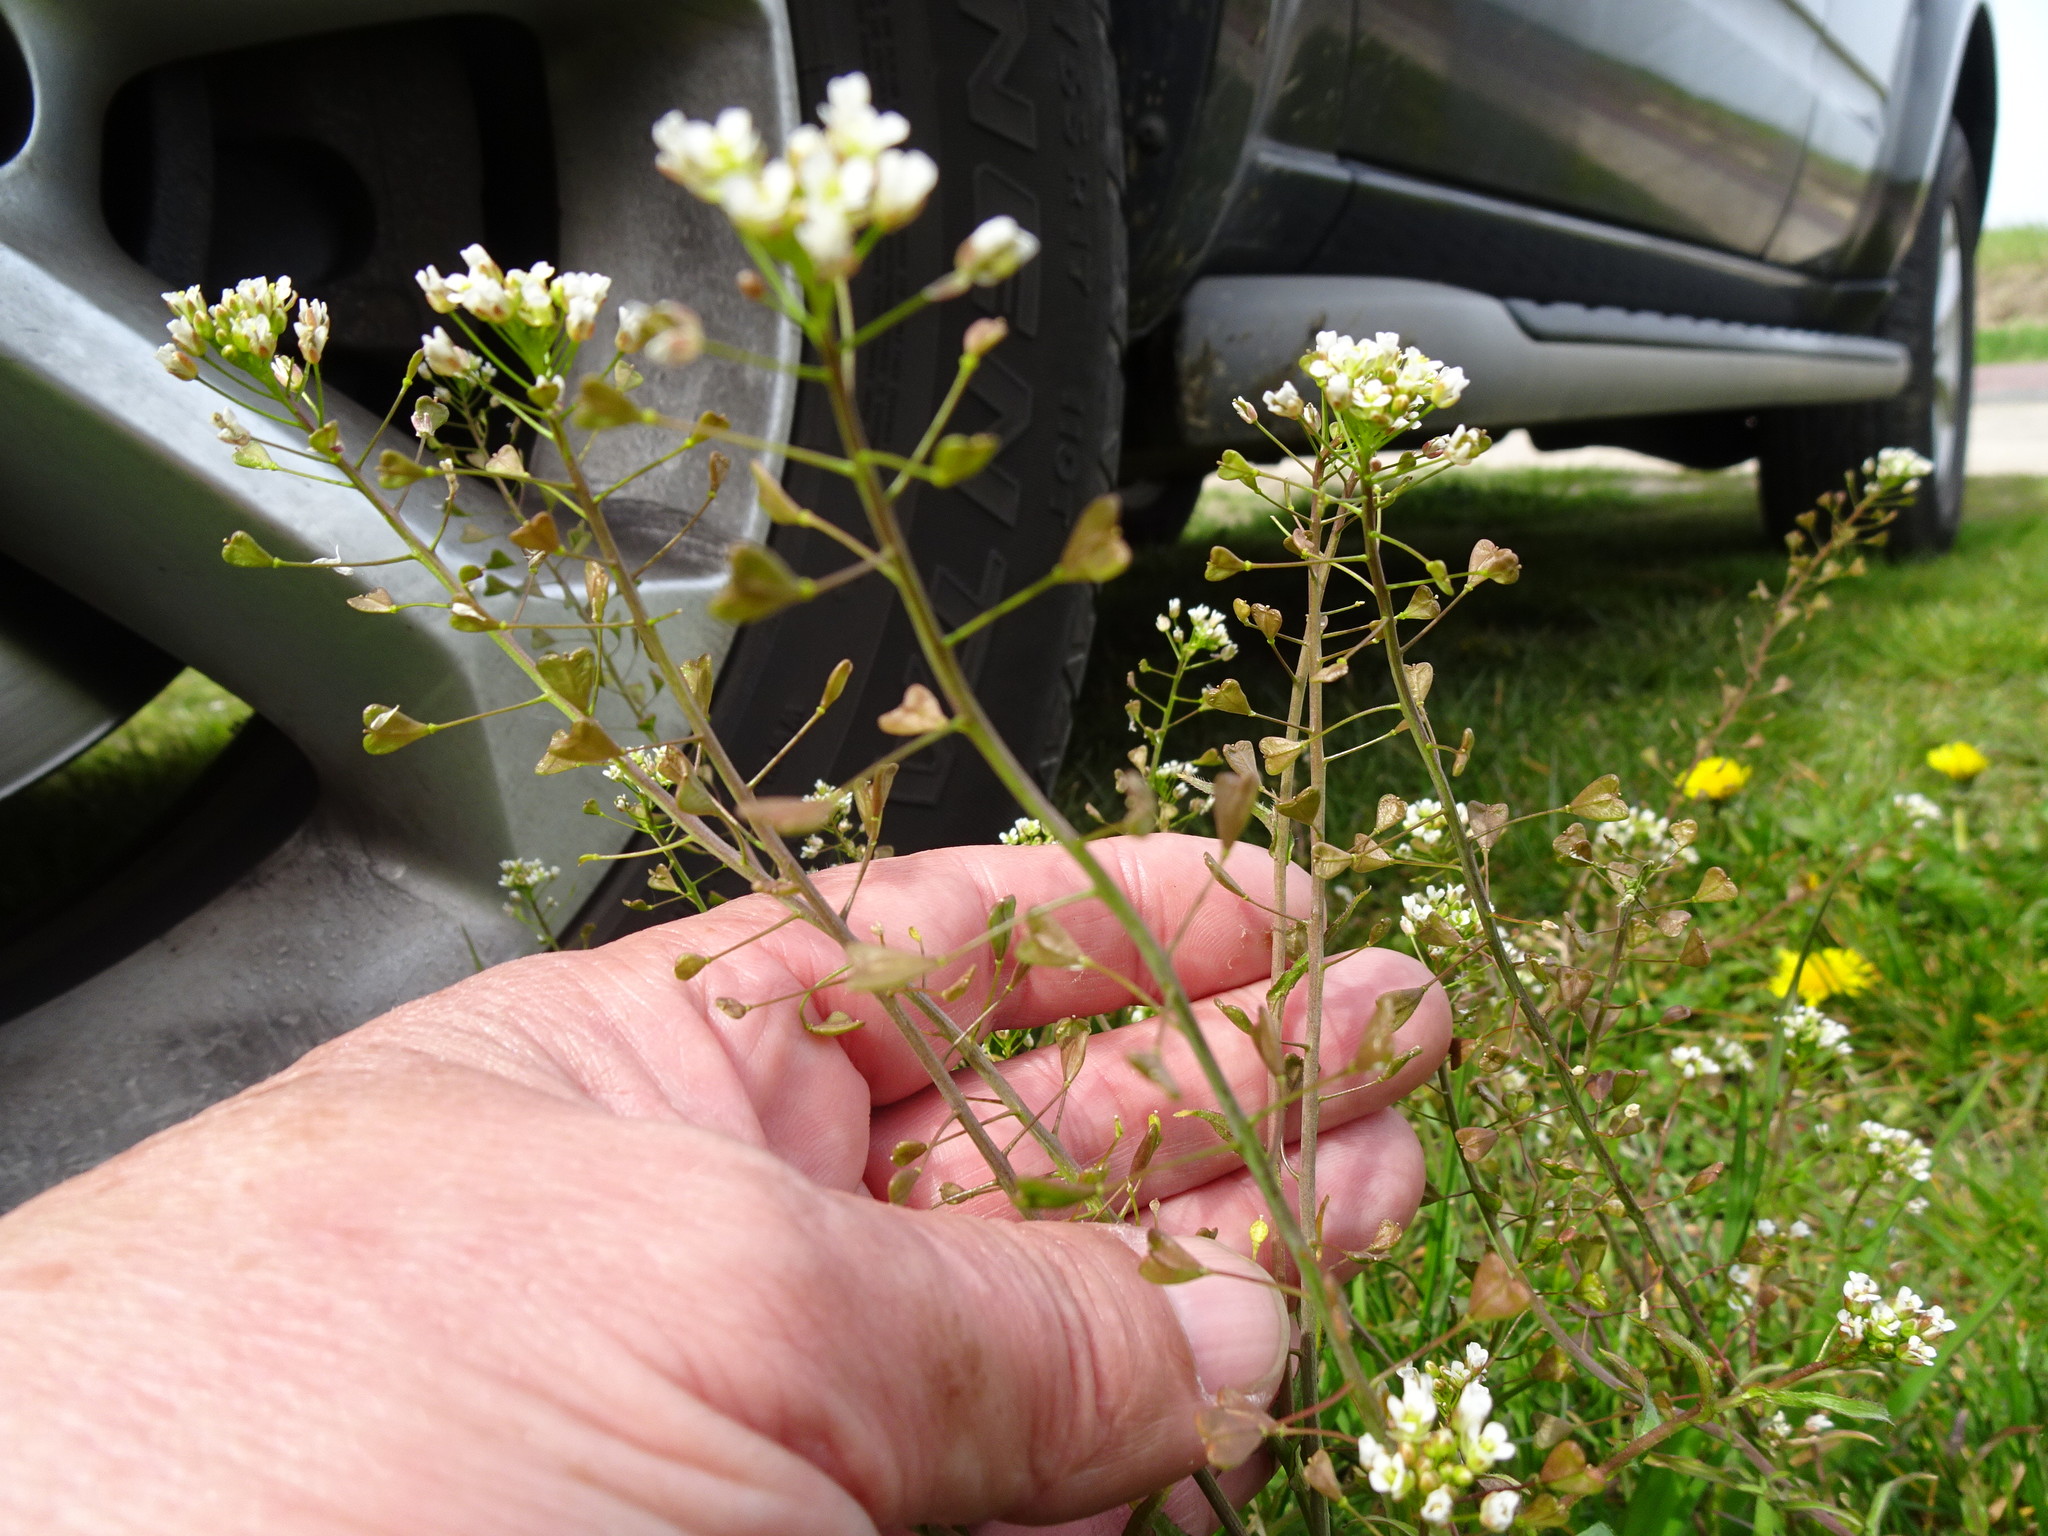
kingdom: Plantae
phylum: Tracheophyta
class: Magnoliopsida
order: Brassicales
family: Brassicaceae
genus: Capsella
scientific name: Capsella bursa-pastoris
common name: Shepherd's purse
